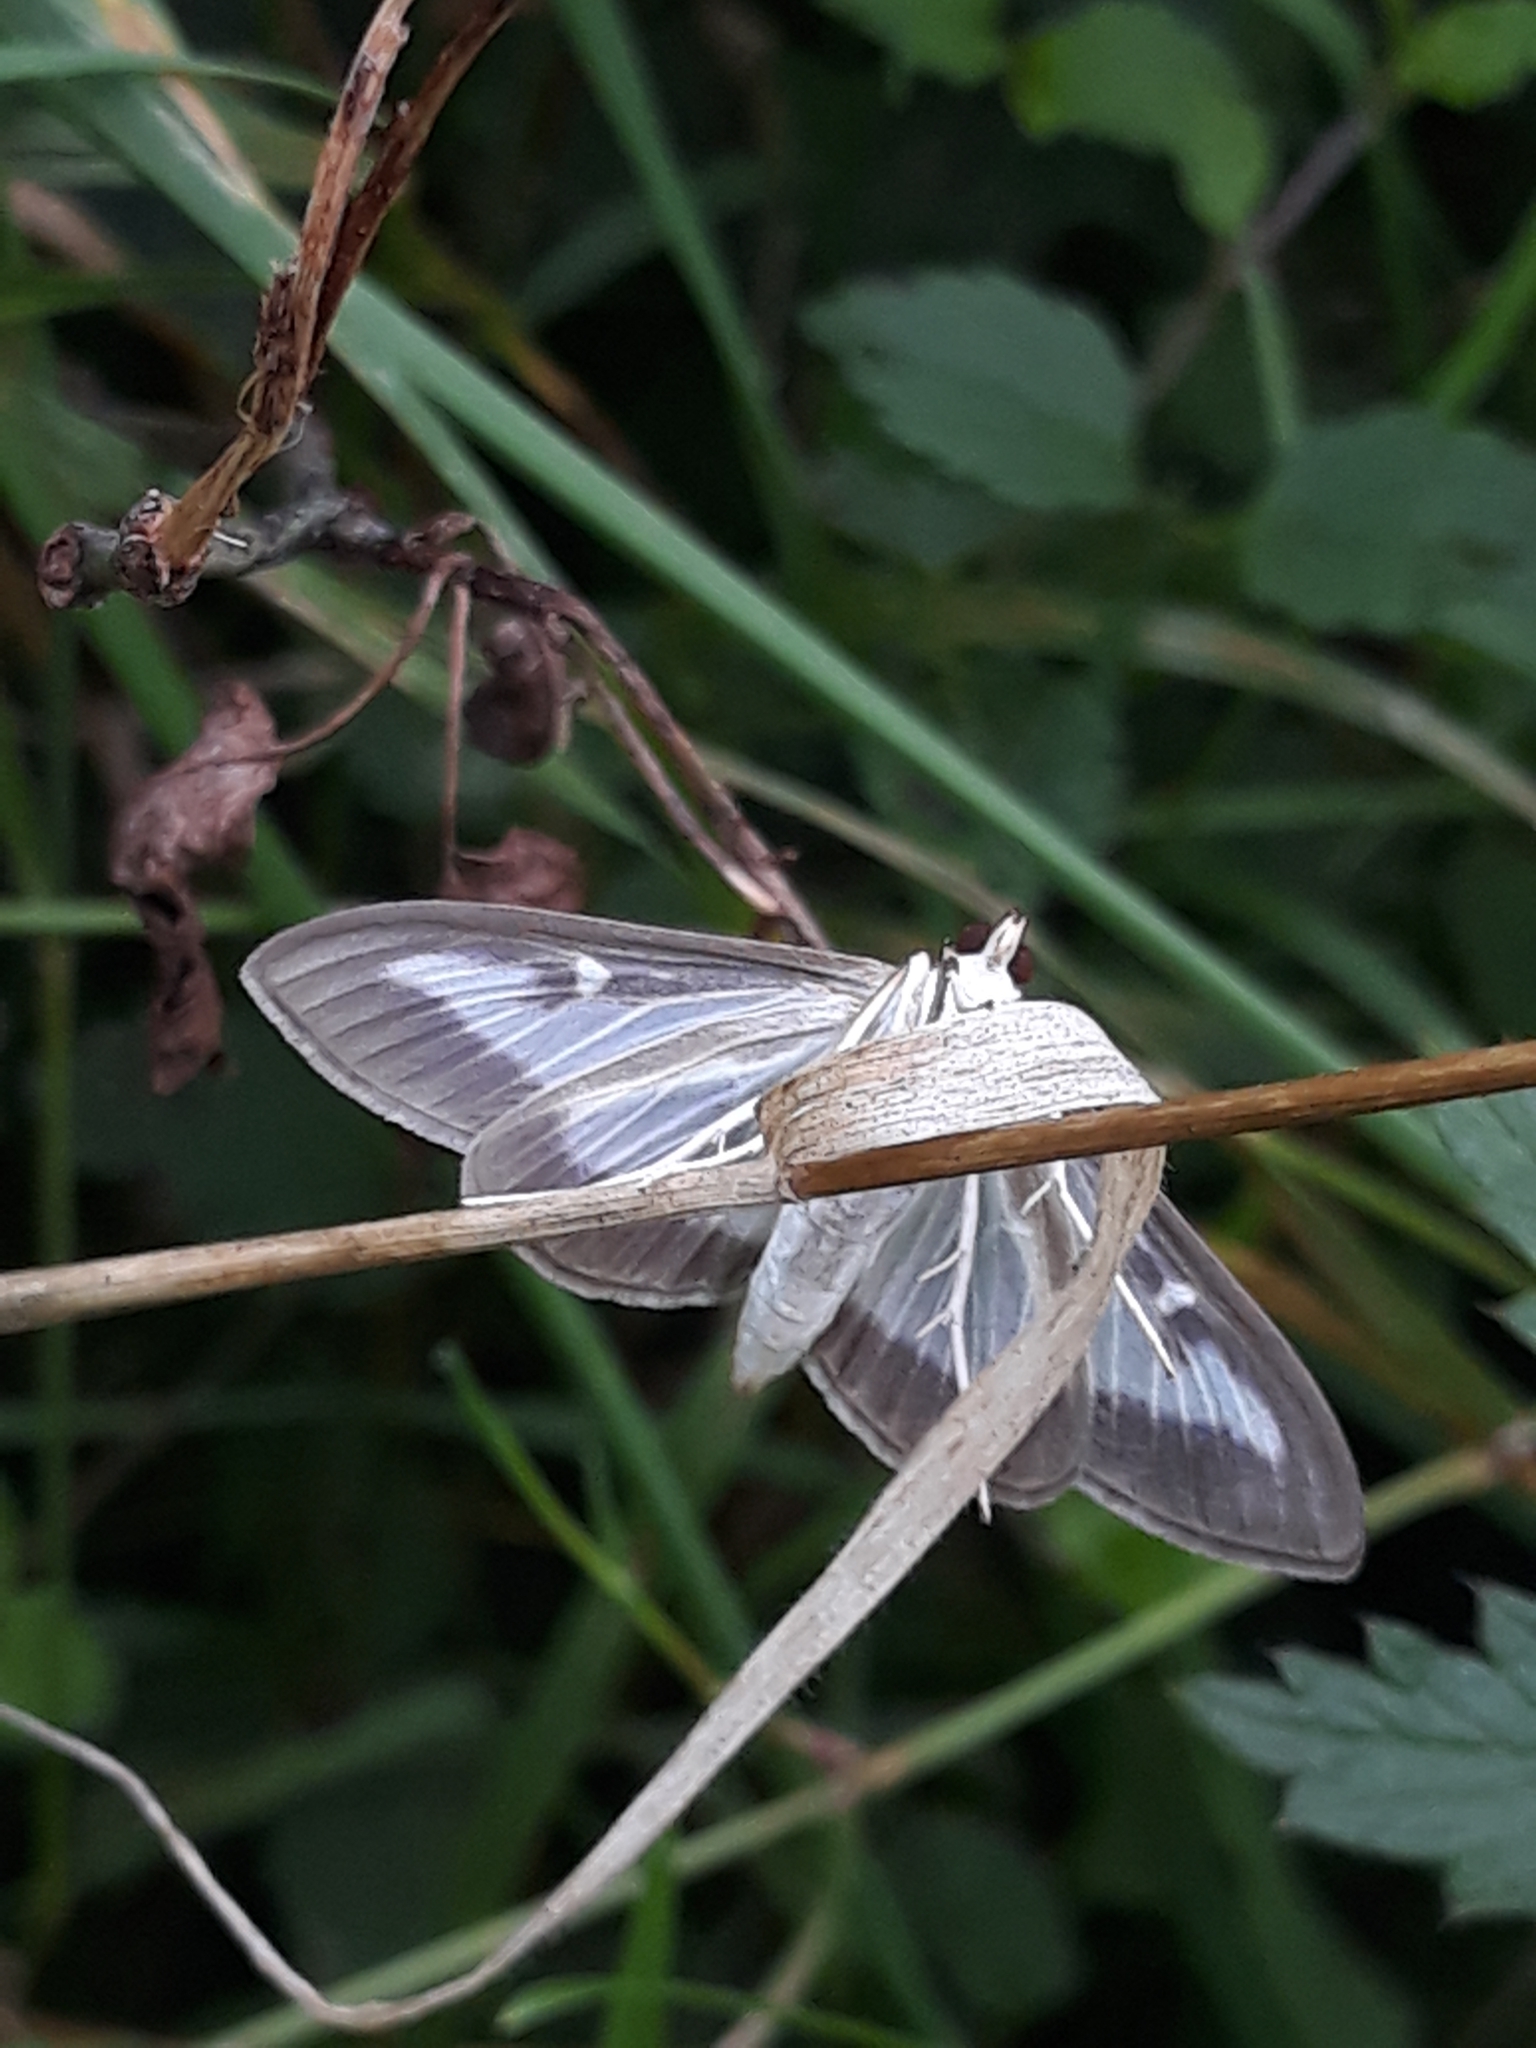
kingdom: Animalia
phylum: Arthropoda
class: Insecta
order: Lepidoptera
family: Crambidae
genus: Cydalima
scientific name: Cydalima perspectalis
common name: Box tree moth
